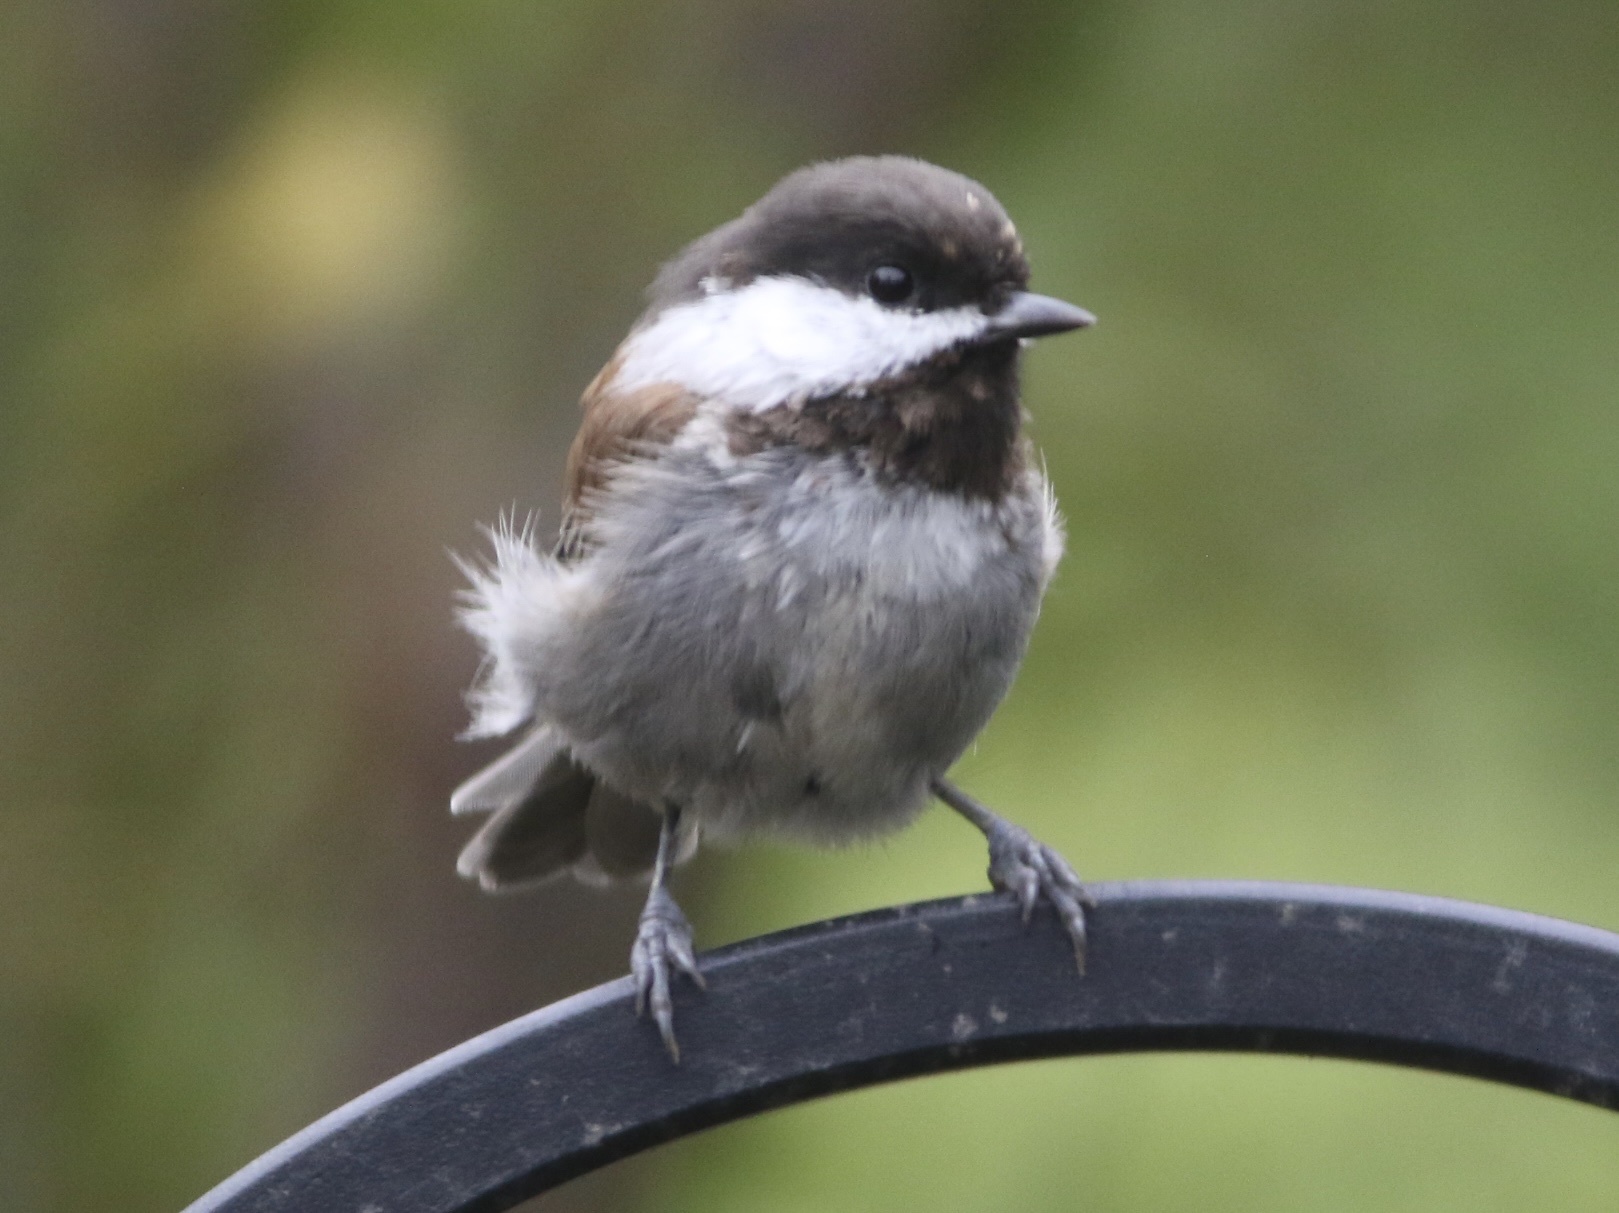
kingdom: Animalia
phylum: Chordata
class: Aves
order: Passeriformes
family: Paridae
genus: Poecile
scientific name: Poecile rufescens
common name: Chestnut-backed chickadee
